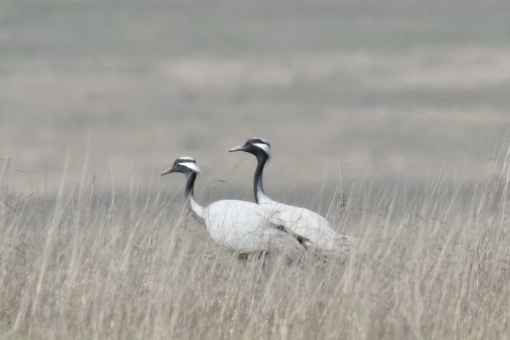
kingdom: Animalia
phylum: Chordata
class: Aves
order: Gruiformes
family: Gruidae
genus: Anthropoides
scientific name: Anthropoides virgo
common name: Demoiselle crane
